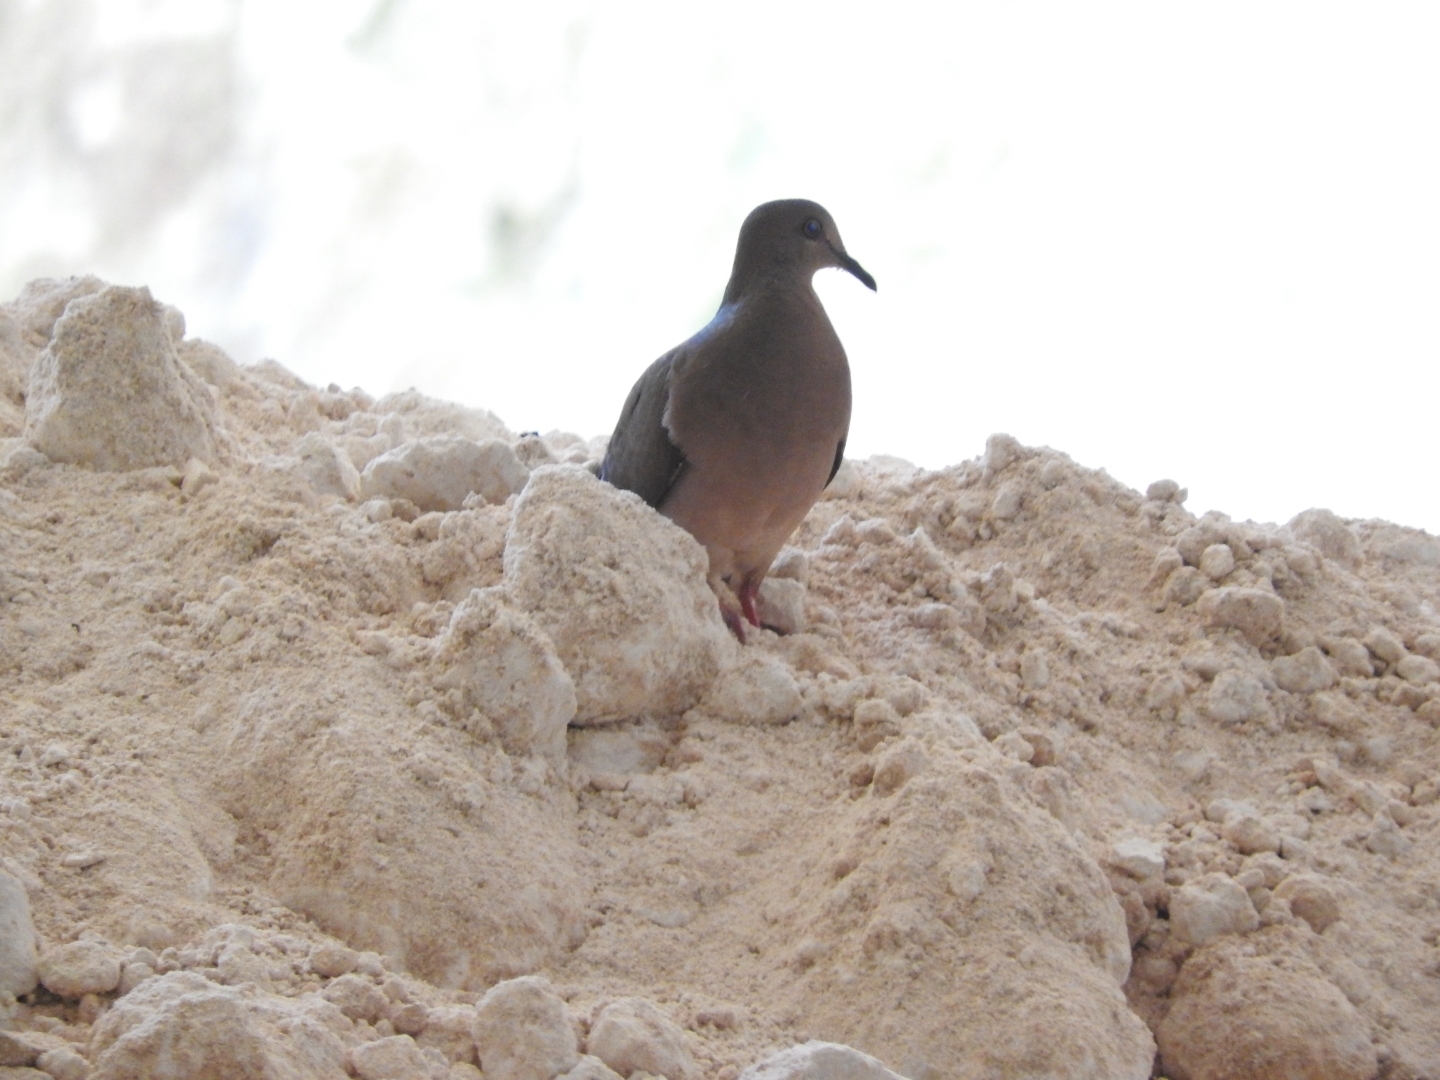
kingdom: Animalia
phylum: Chordata
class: Aves
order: Columbiformes
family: Columbidae
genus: Leptotila
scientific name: Leptotila verreauxi
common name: White-tipped dove
